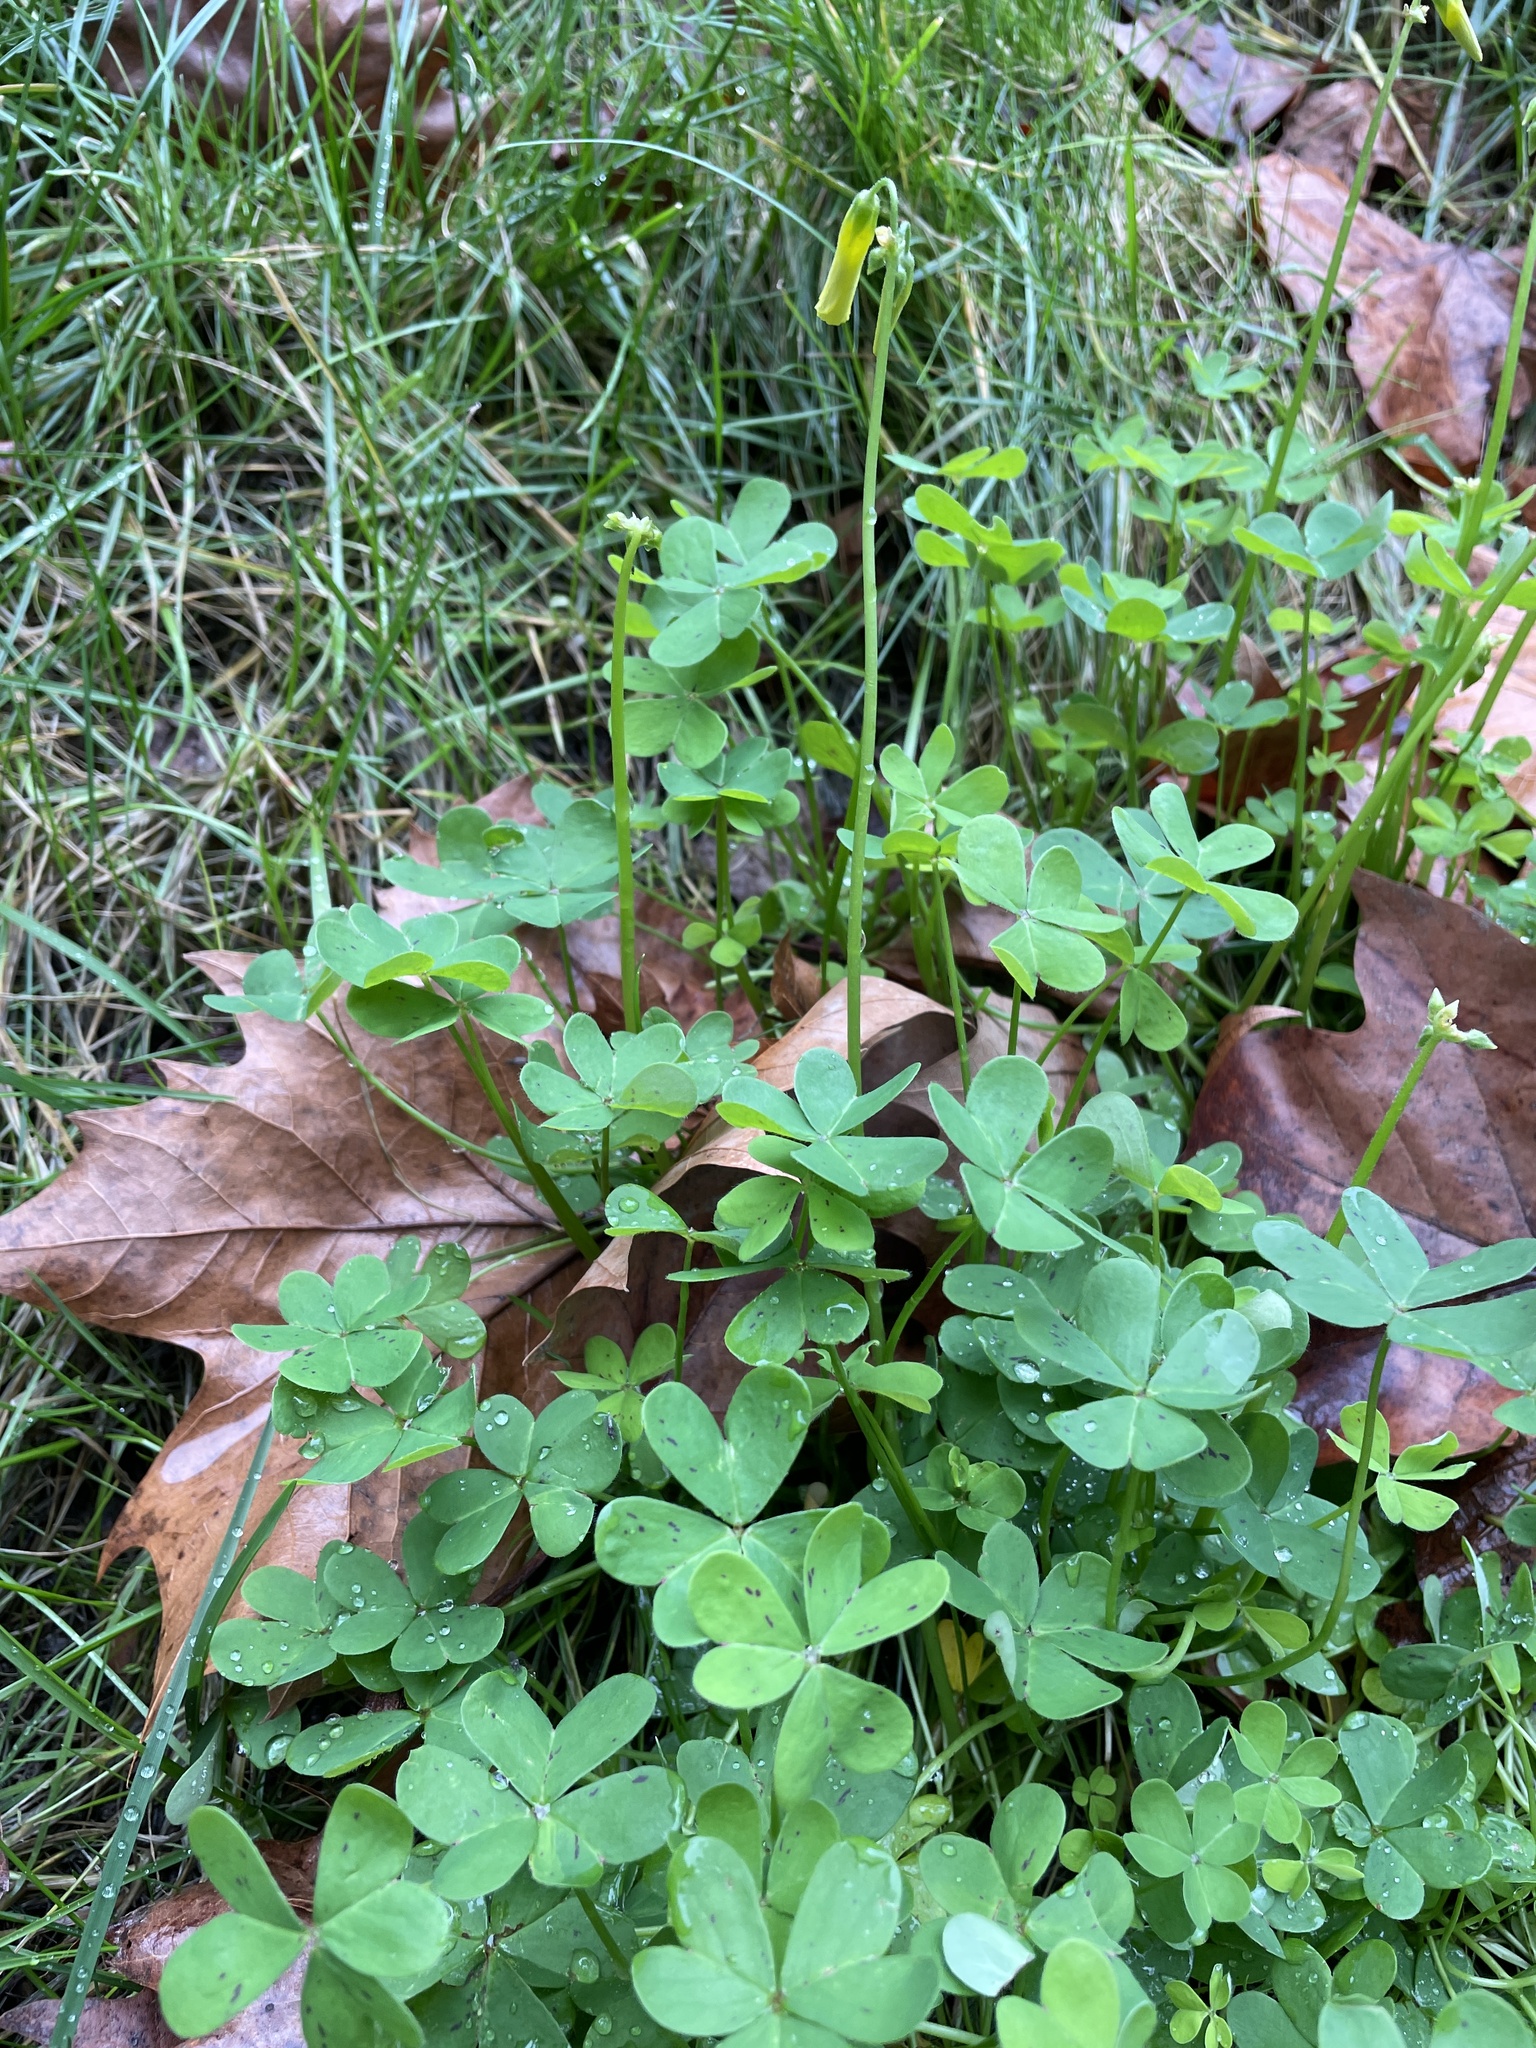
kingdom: Plantae
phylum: Tracheophyta
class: Magnoliopsida
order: Oxalidales
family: Oxalidaceae
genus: Oxalis
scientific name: Oxalis pes-caprae
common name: Bermuda-buttercup
